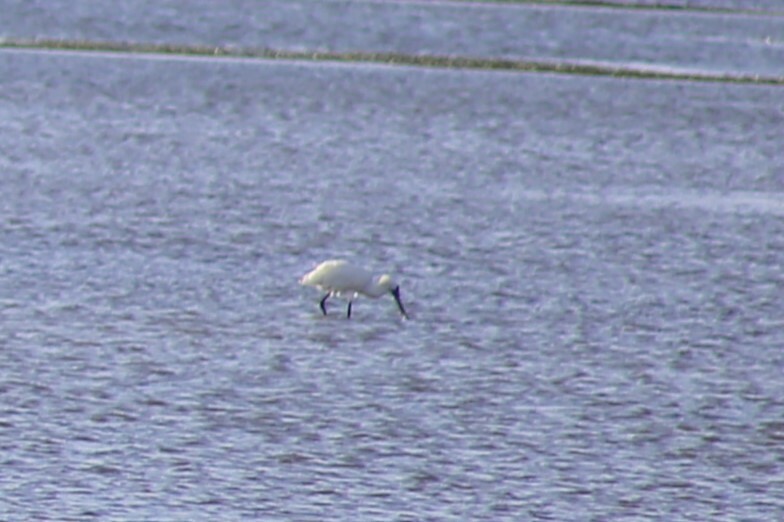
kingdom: Animalia
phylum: Chordata
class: Aves
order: Pelecaniformes
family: Threskiornithidae
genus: Platalea
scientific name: Platalea regia
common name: Royal spoonbill
